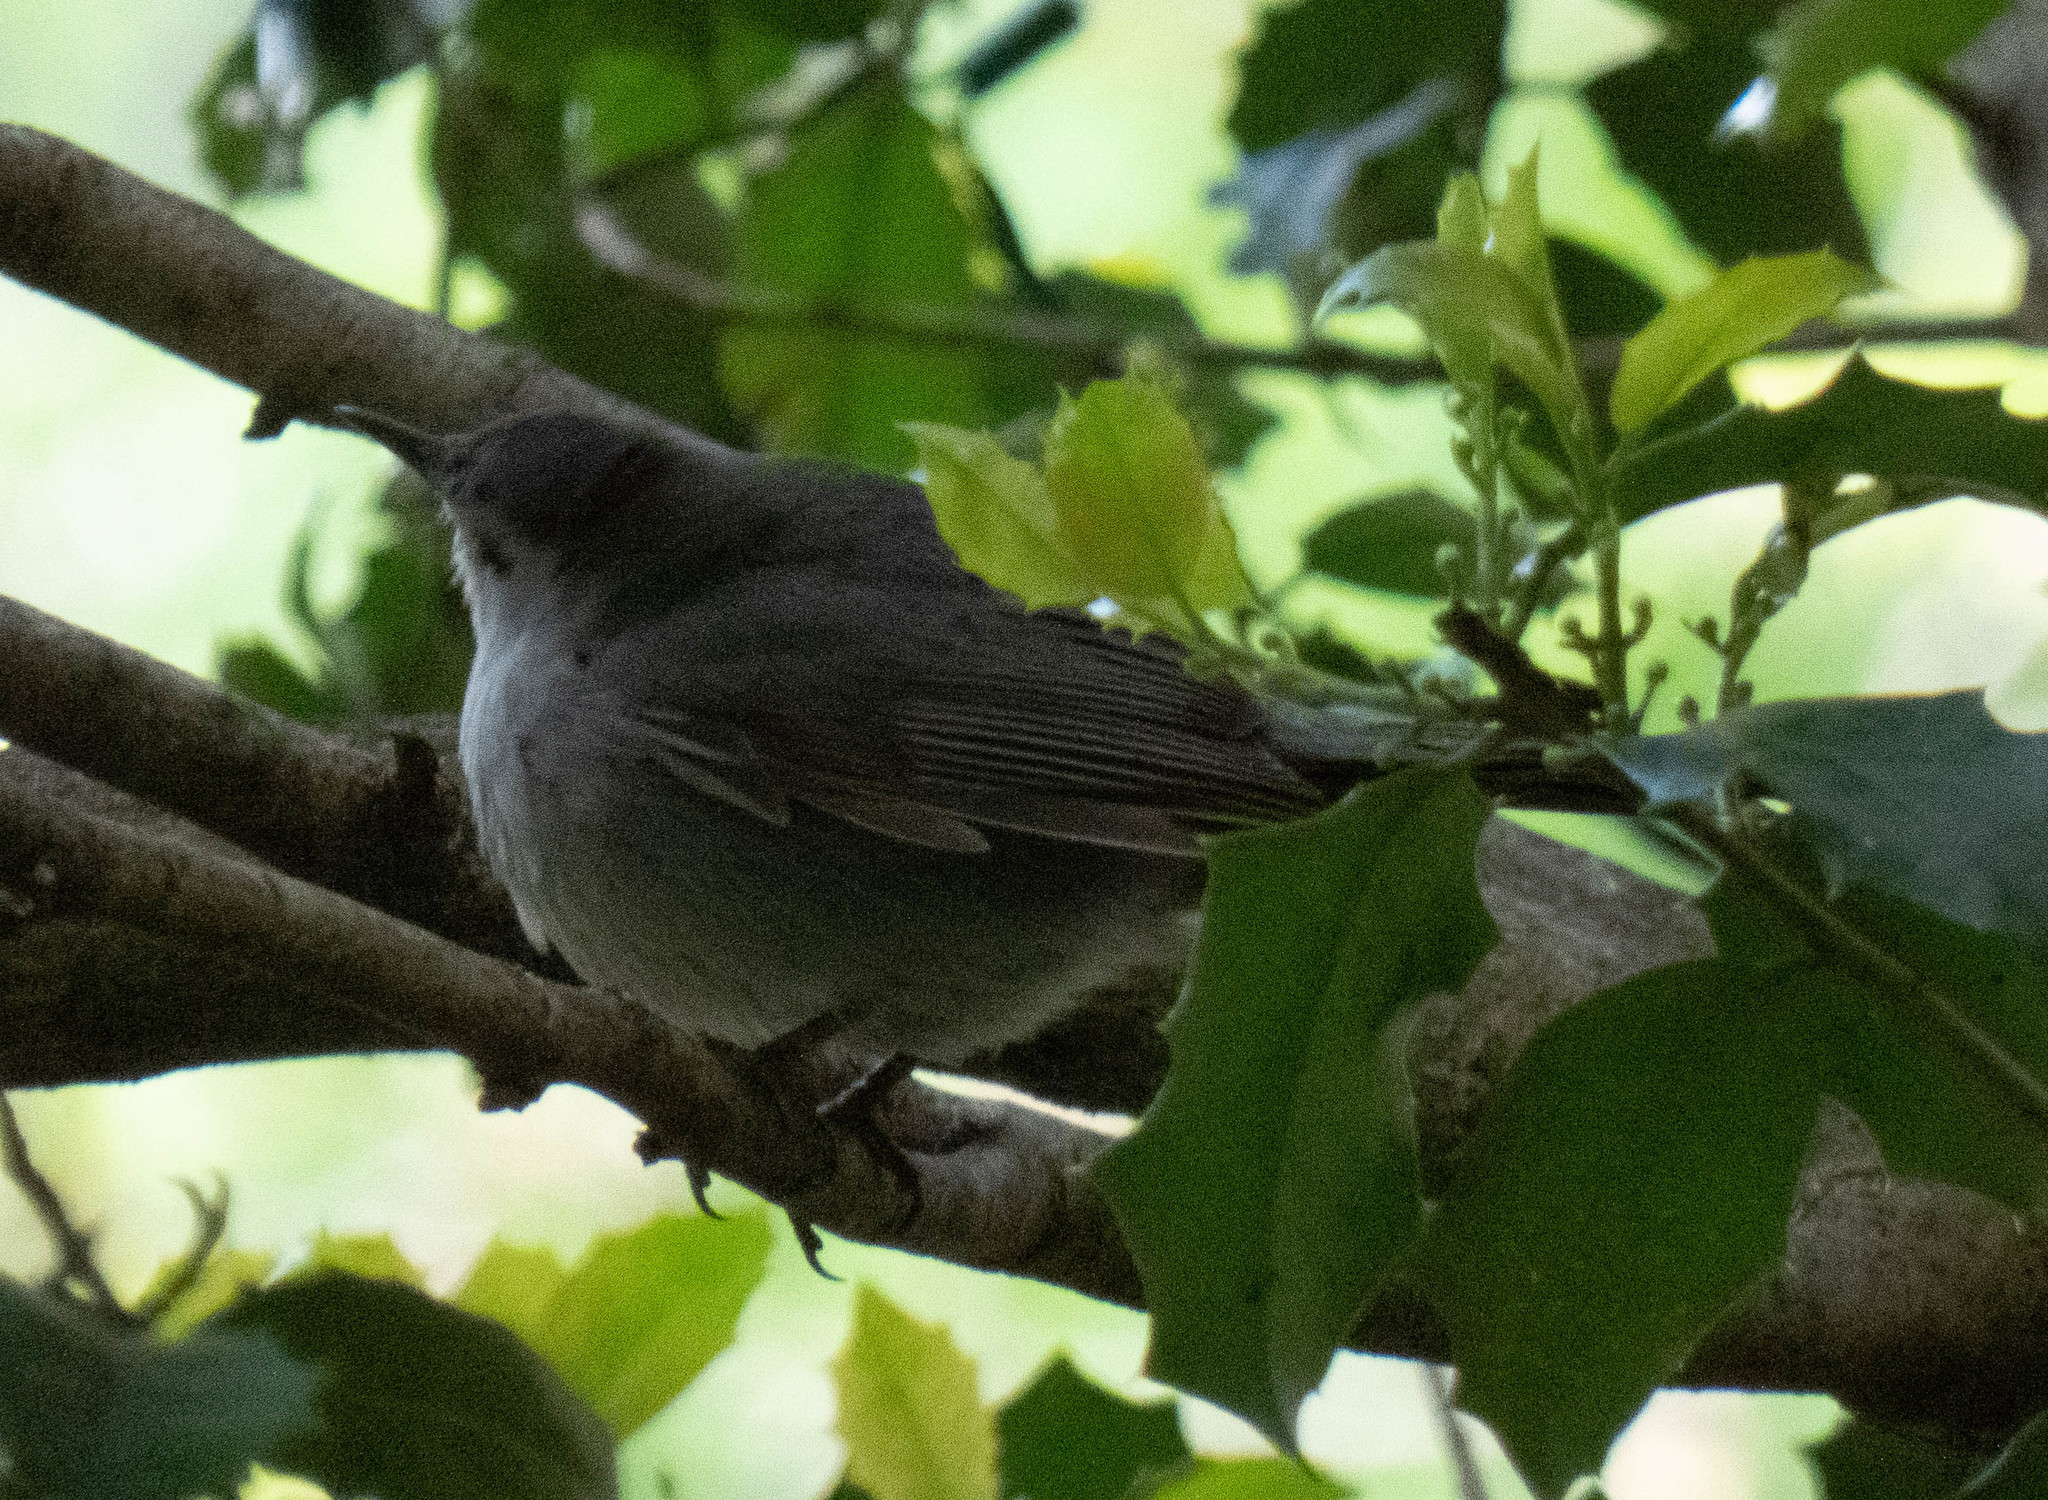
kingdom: Animalia
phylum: Chordata
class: Aves
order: Passeriformes
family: Mimidae
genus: Dumetella
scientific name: Dumetella carolinensis
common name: Gray catbird
